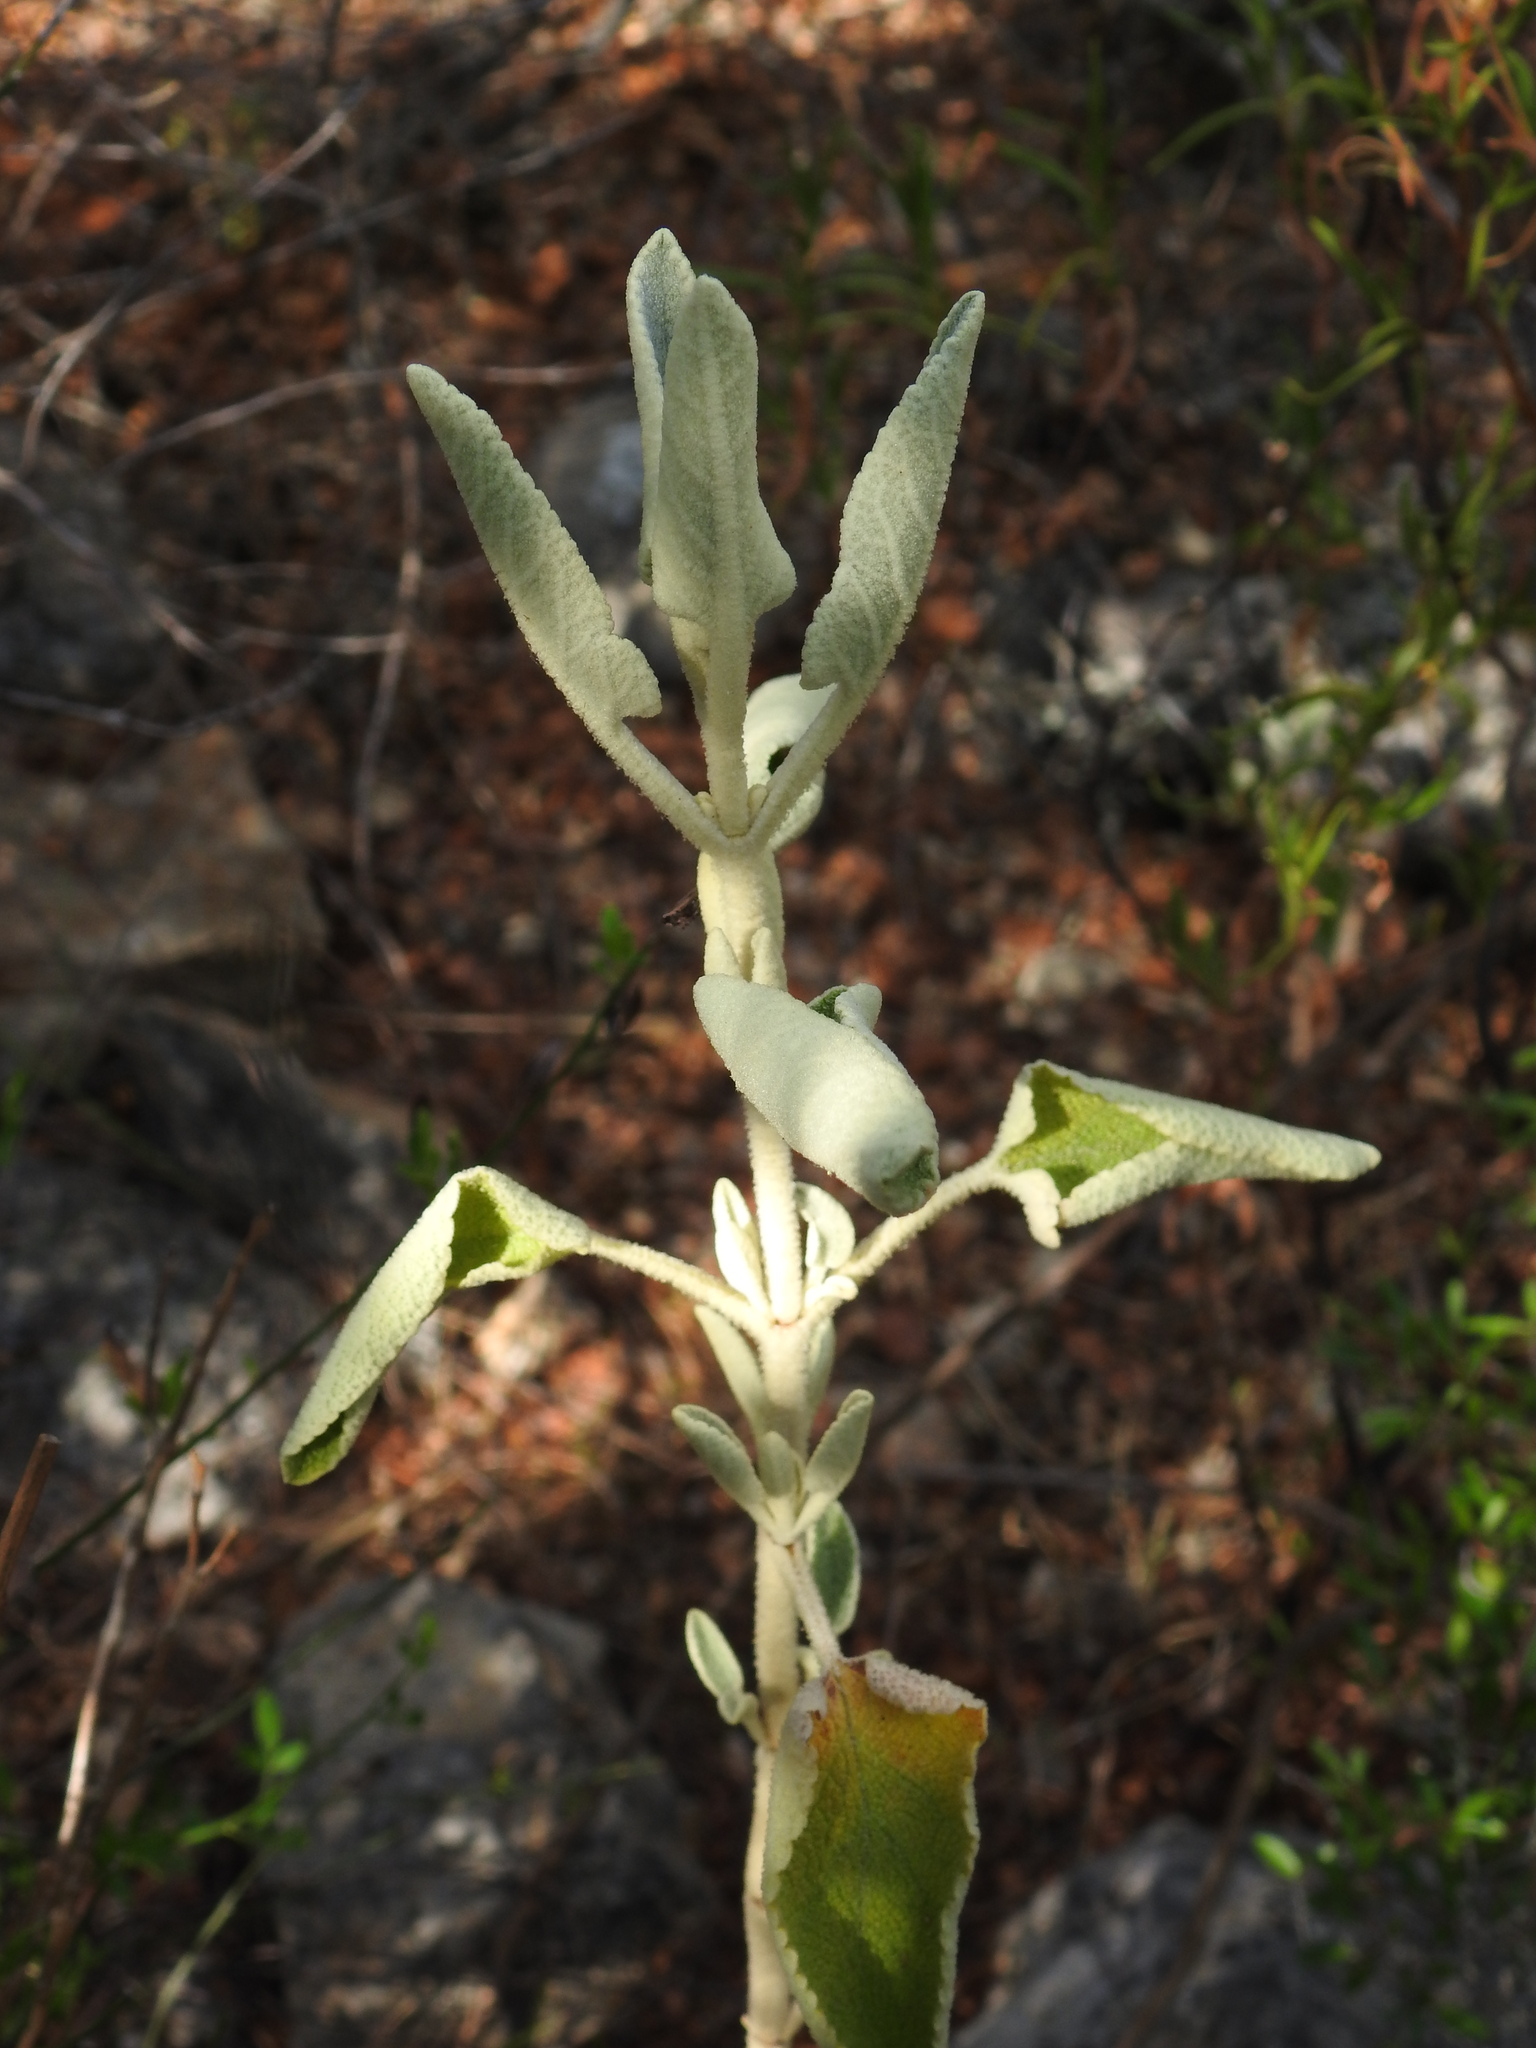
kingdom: Plantae
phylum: Tracheophyta
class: Magnoliopsida
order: Lamiales
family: Lamiaceae
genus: Phlomis
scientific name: Phlomis purpurea
